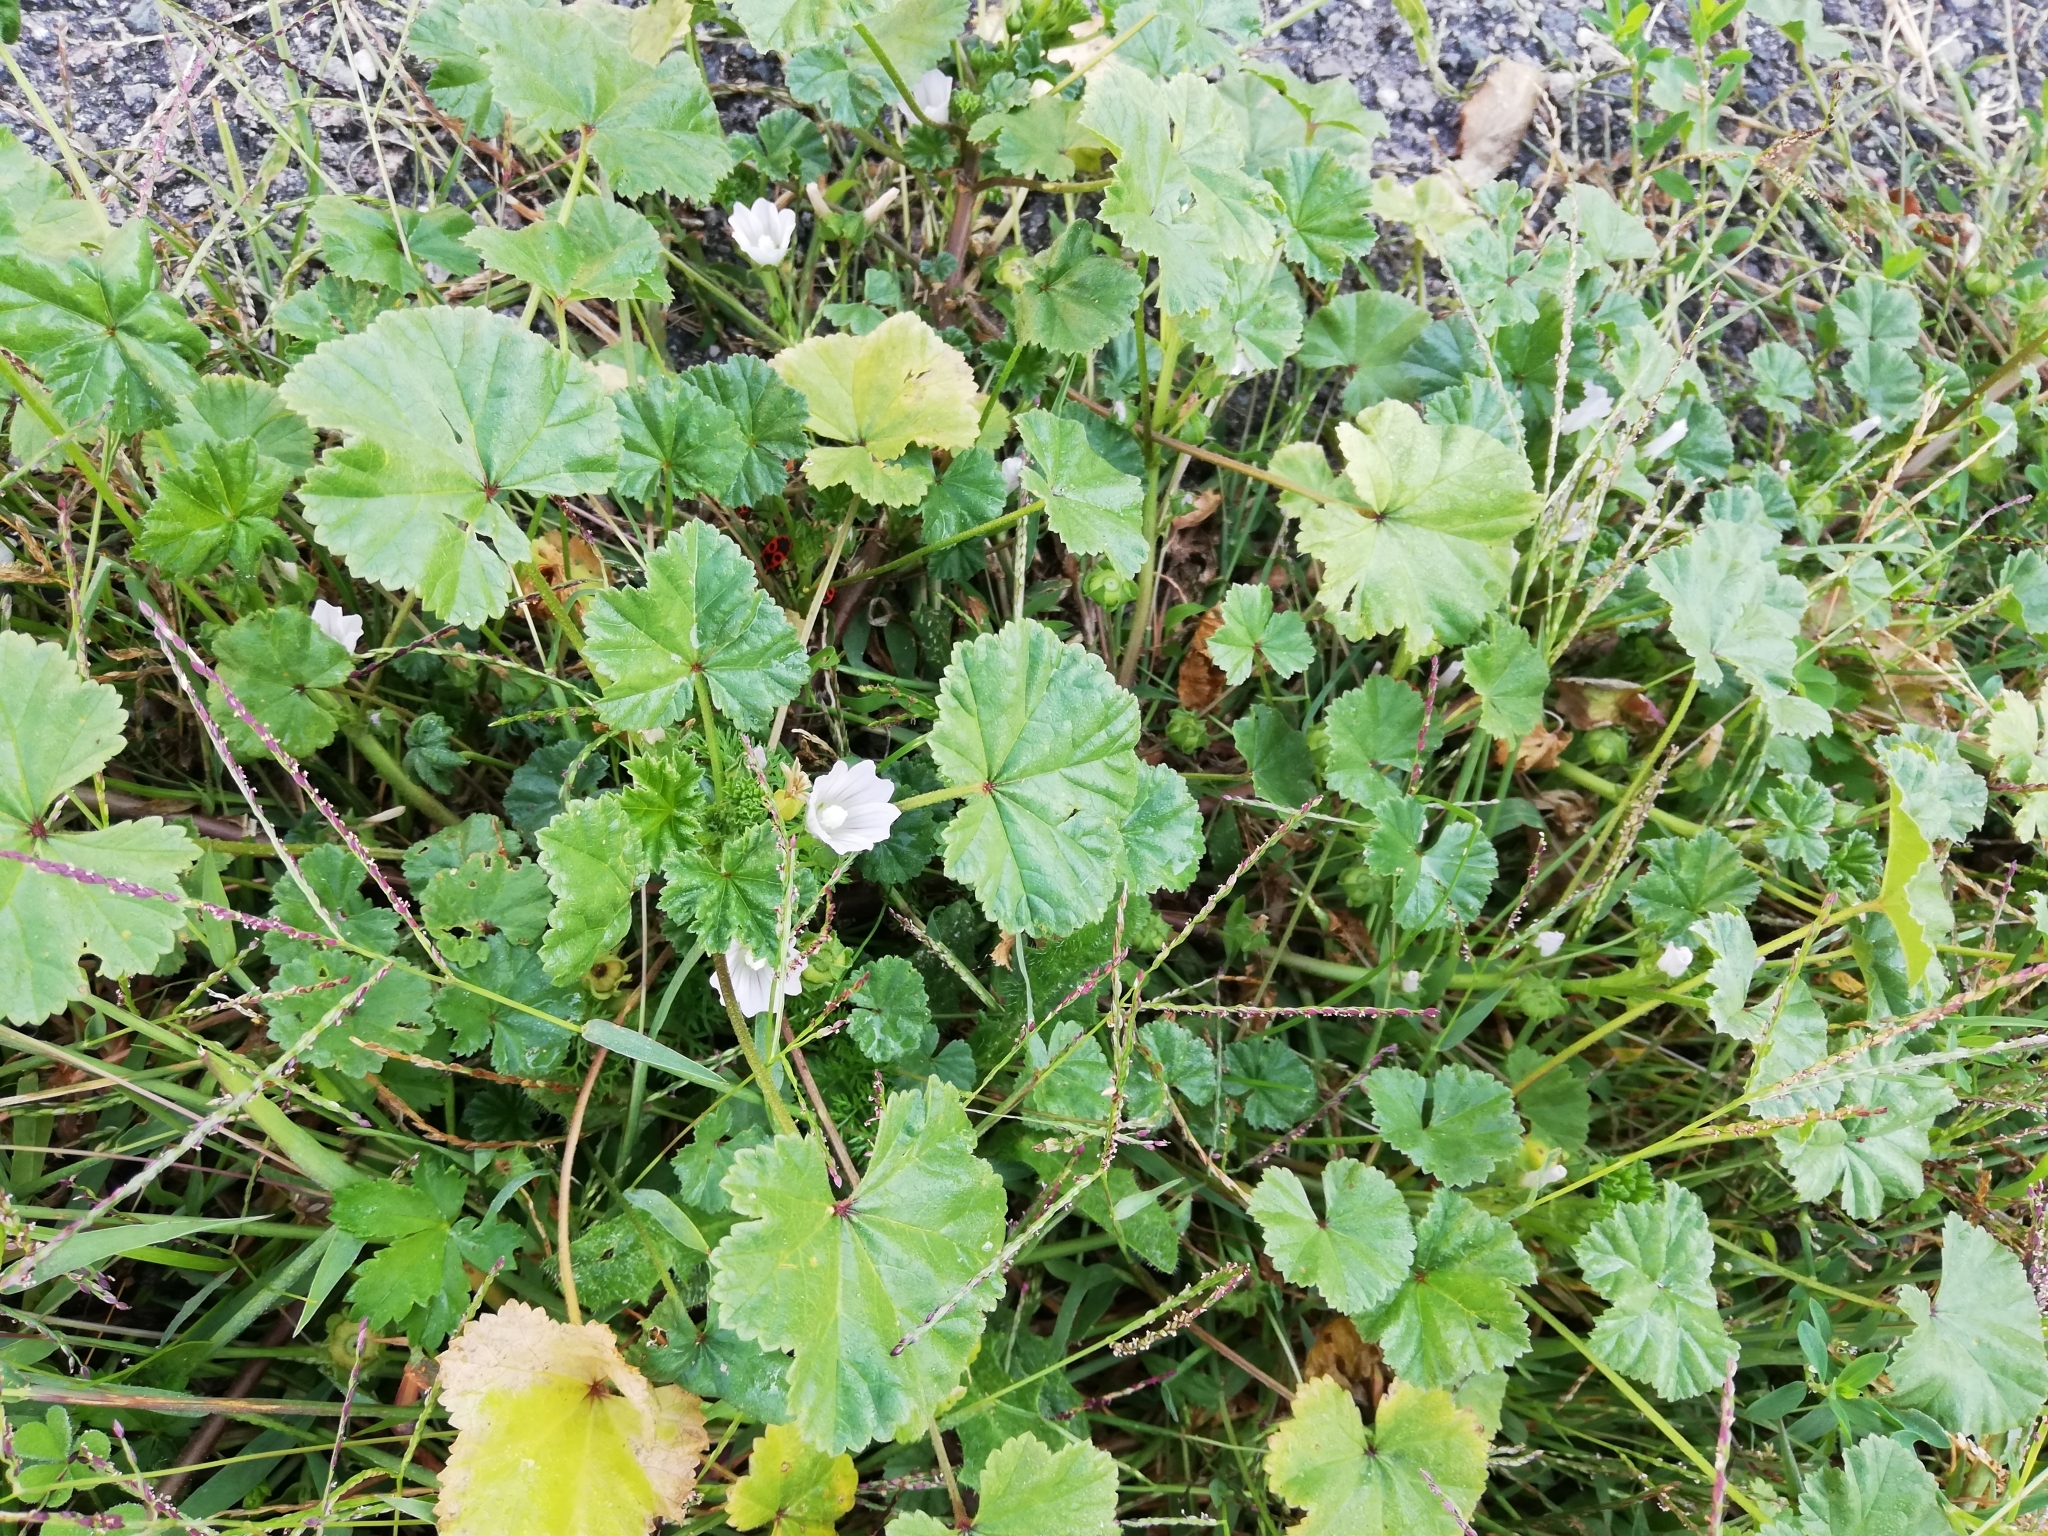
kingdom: Plantae
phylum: Tracheophyta
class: Magnoliopsida
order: Malvales
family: Malvaceae
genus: Malva
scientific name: Malva neglecta
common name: Common mallow
